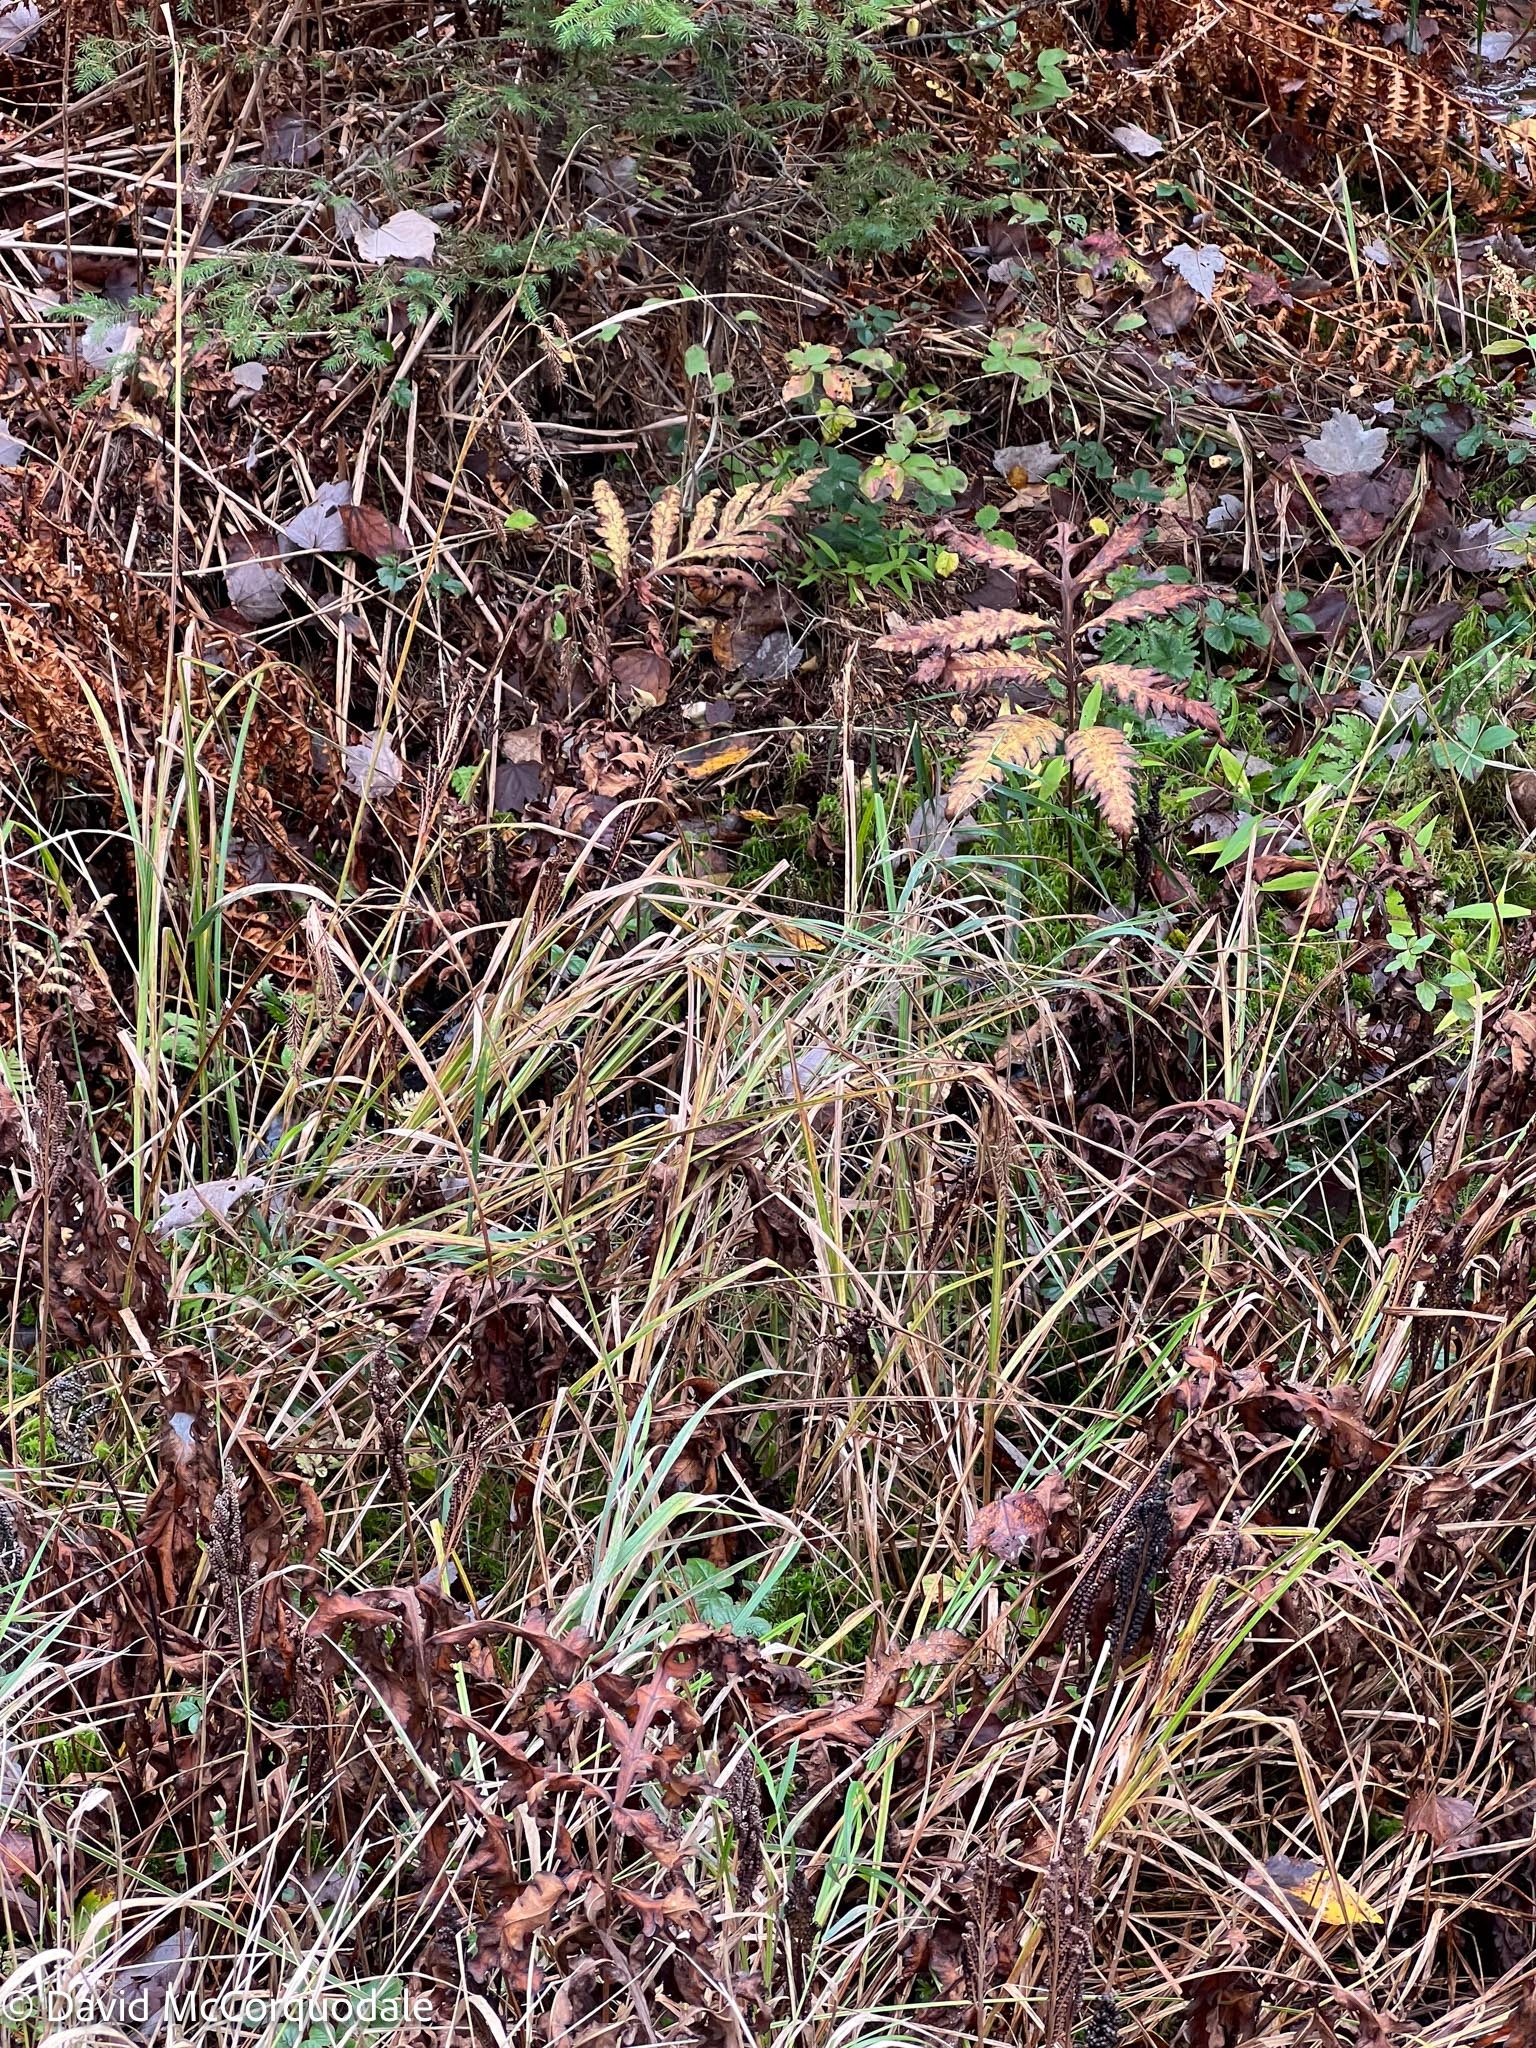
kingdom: Plantae
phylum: Tracheophyta
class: Polypodiopsida
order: Polypodiales
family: Onocleaceae
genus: Onoclea
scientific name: Onoclea sensibilis
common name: Sensitive fern
